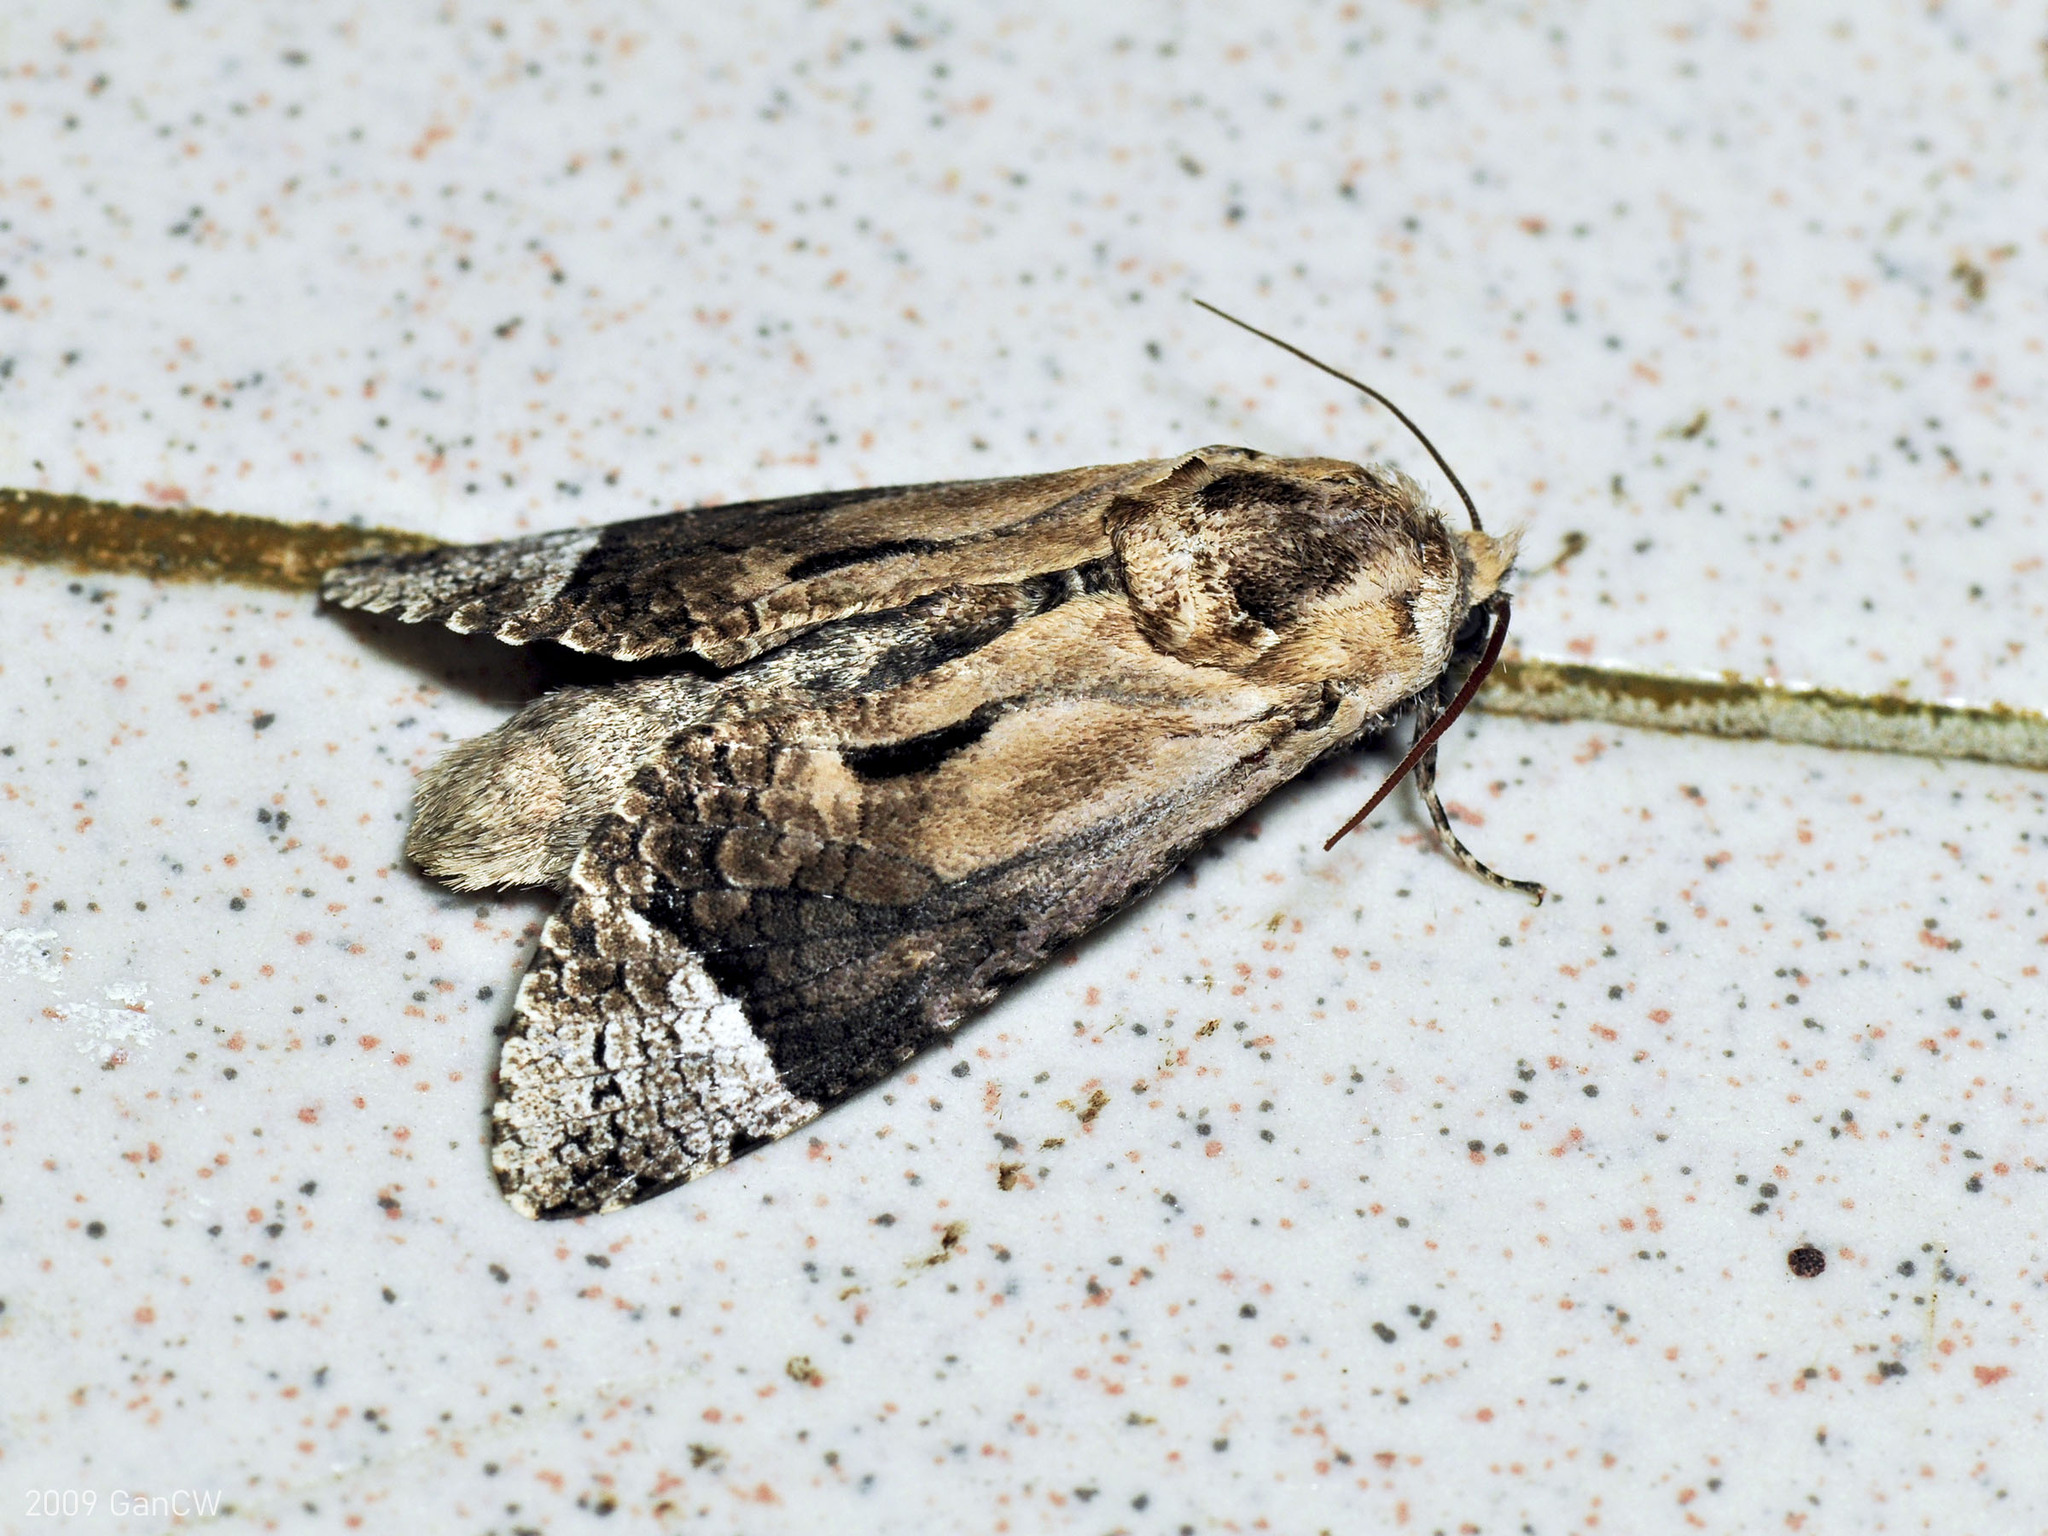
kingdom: Animalia
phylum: Arthropoda
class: Insecta
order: Lepidoptera
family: Cossidae
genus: Groenendaelia
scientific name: Groenendaelia kinabaluensis
